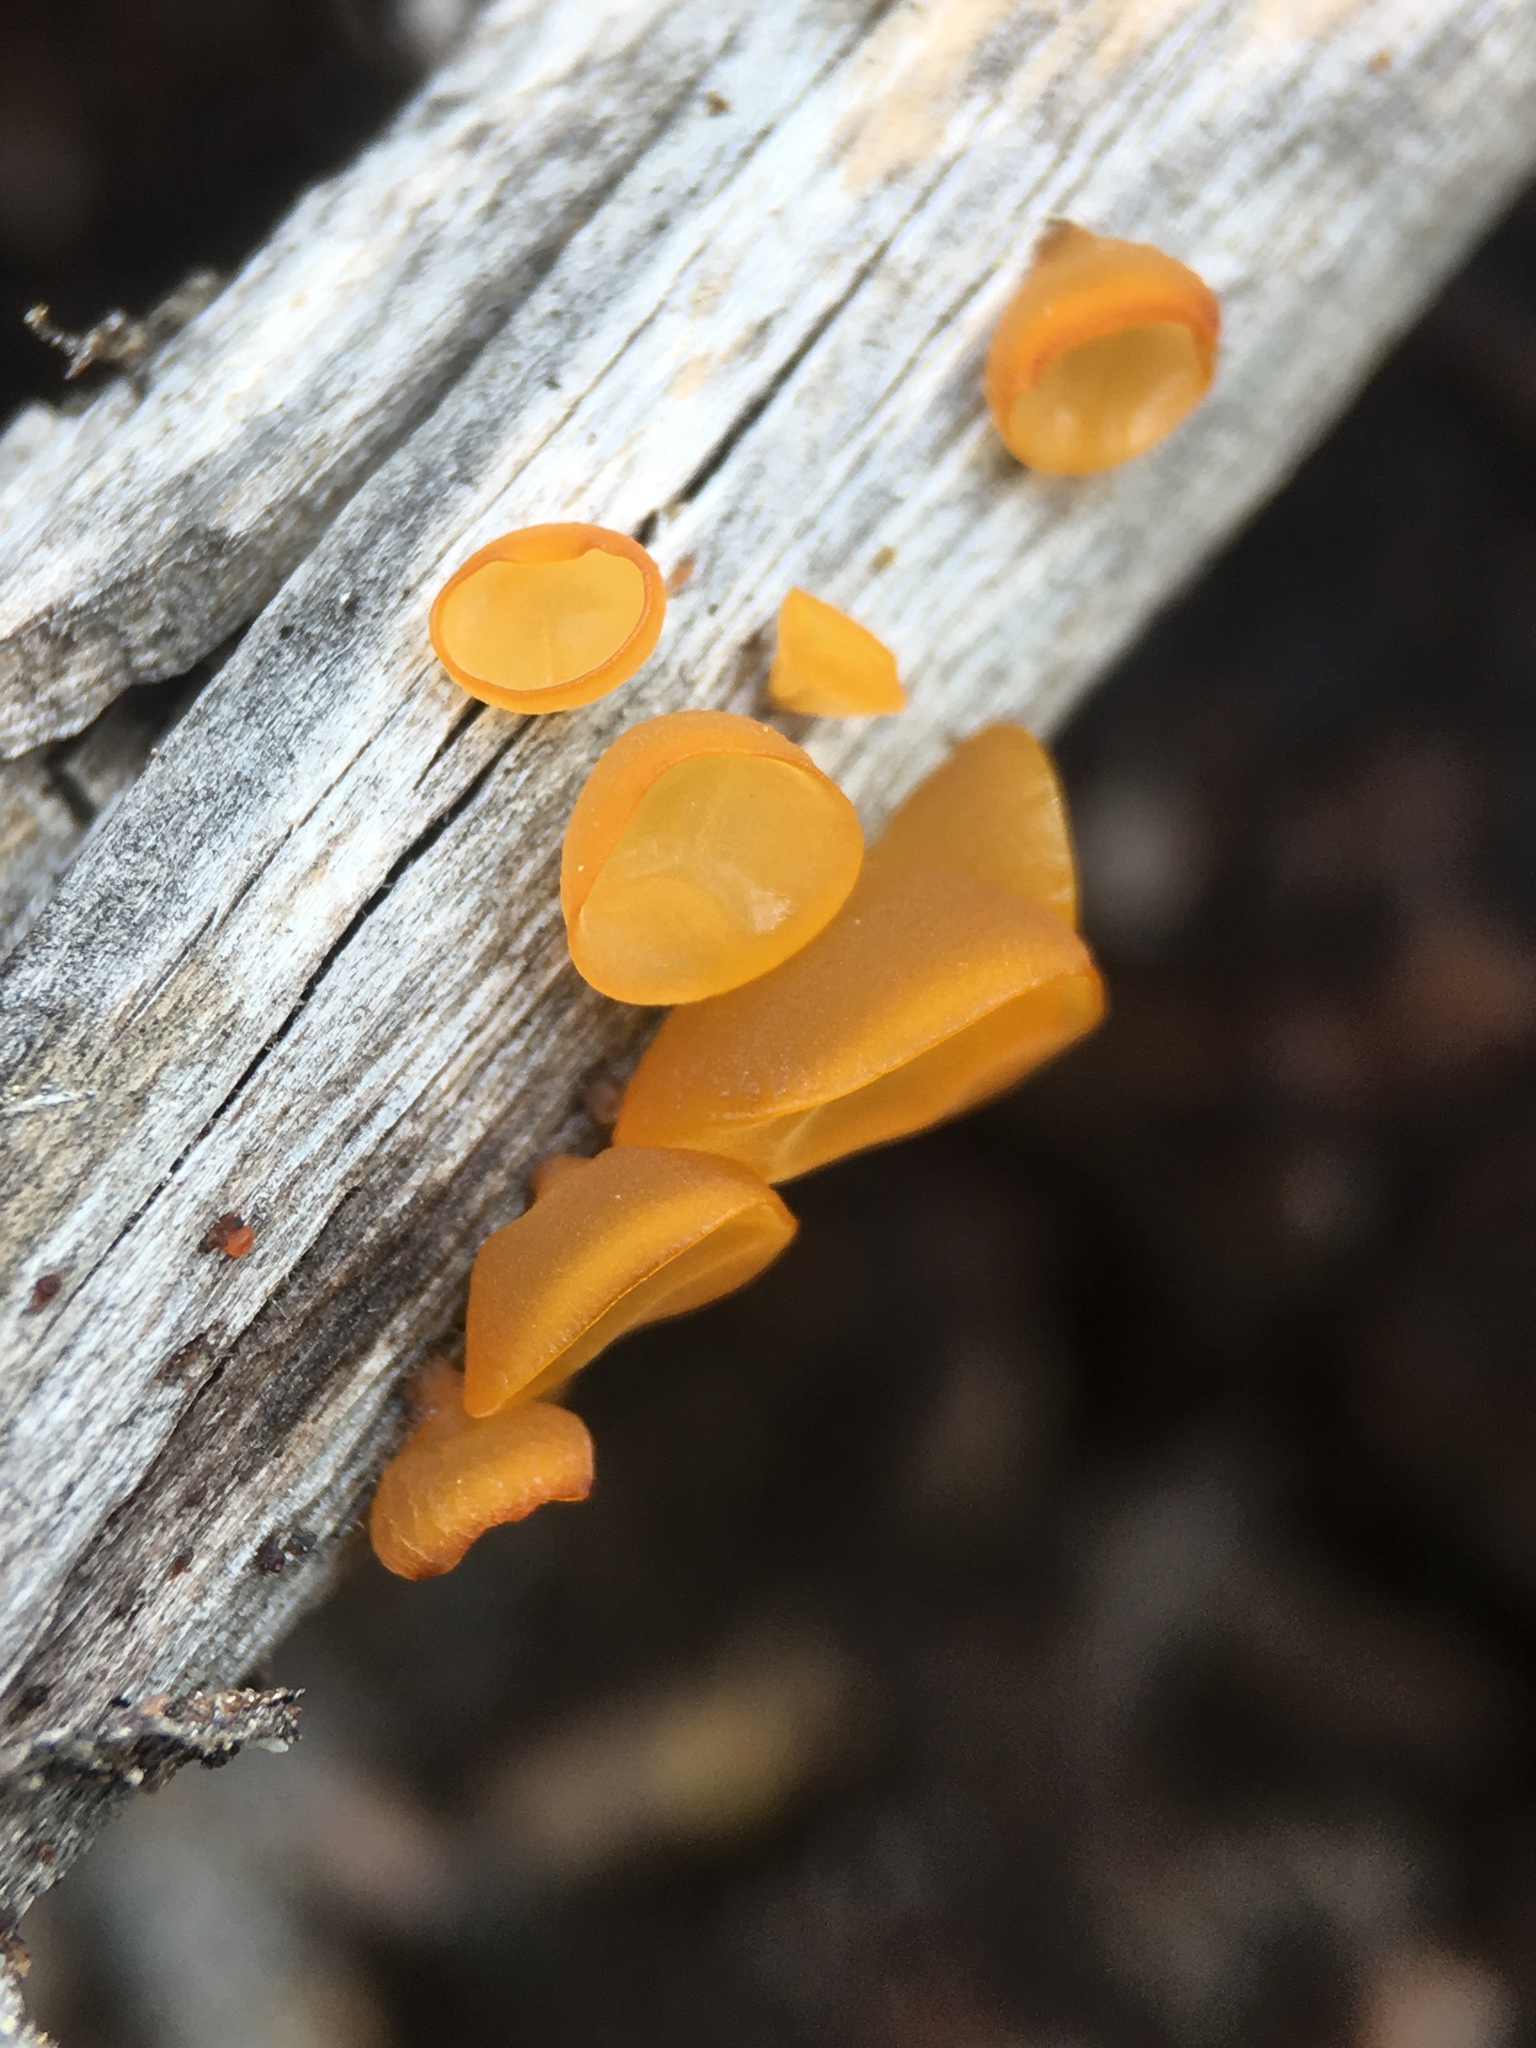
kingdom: Fungi
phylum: Basidiomycota
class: Dacrymycetes
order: Dacrymycetales
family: Dacrymycetaceae
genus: Guepiniopsis
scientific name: Guepiniopsis alpina
